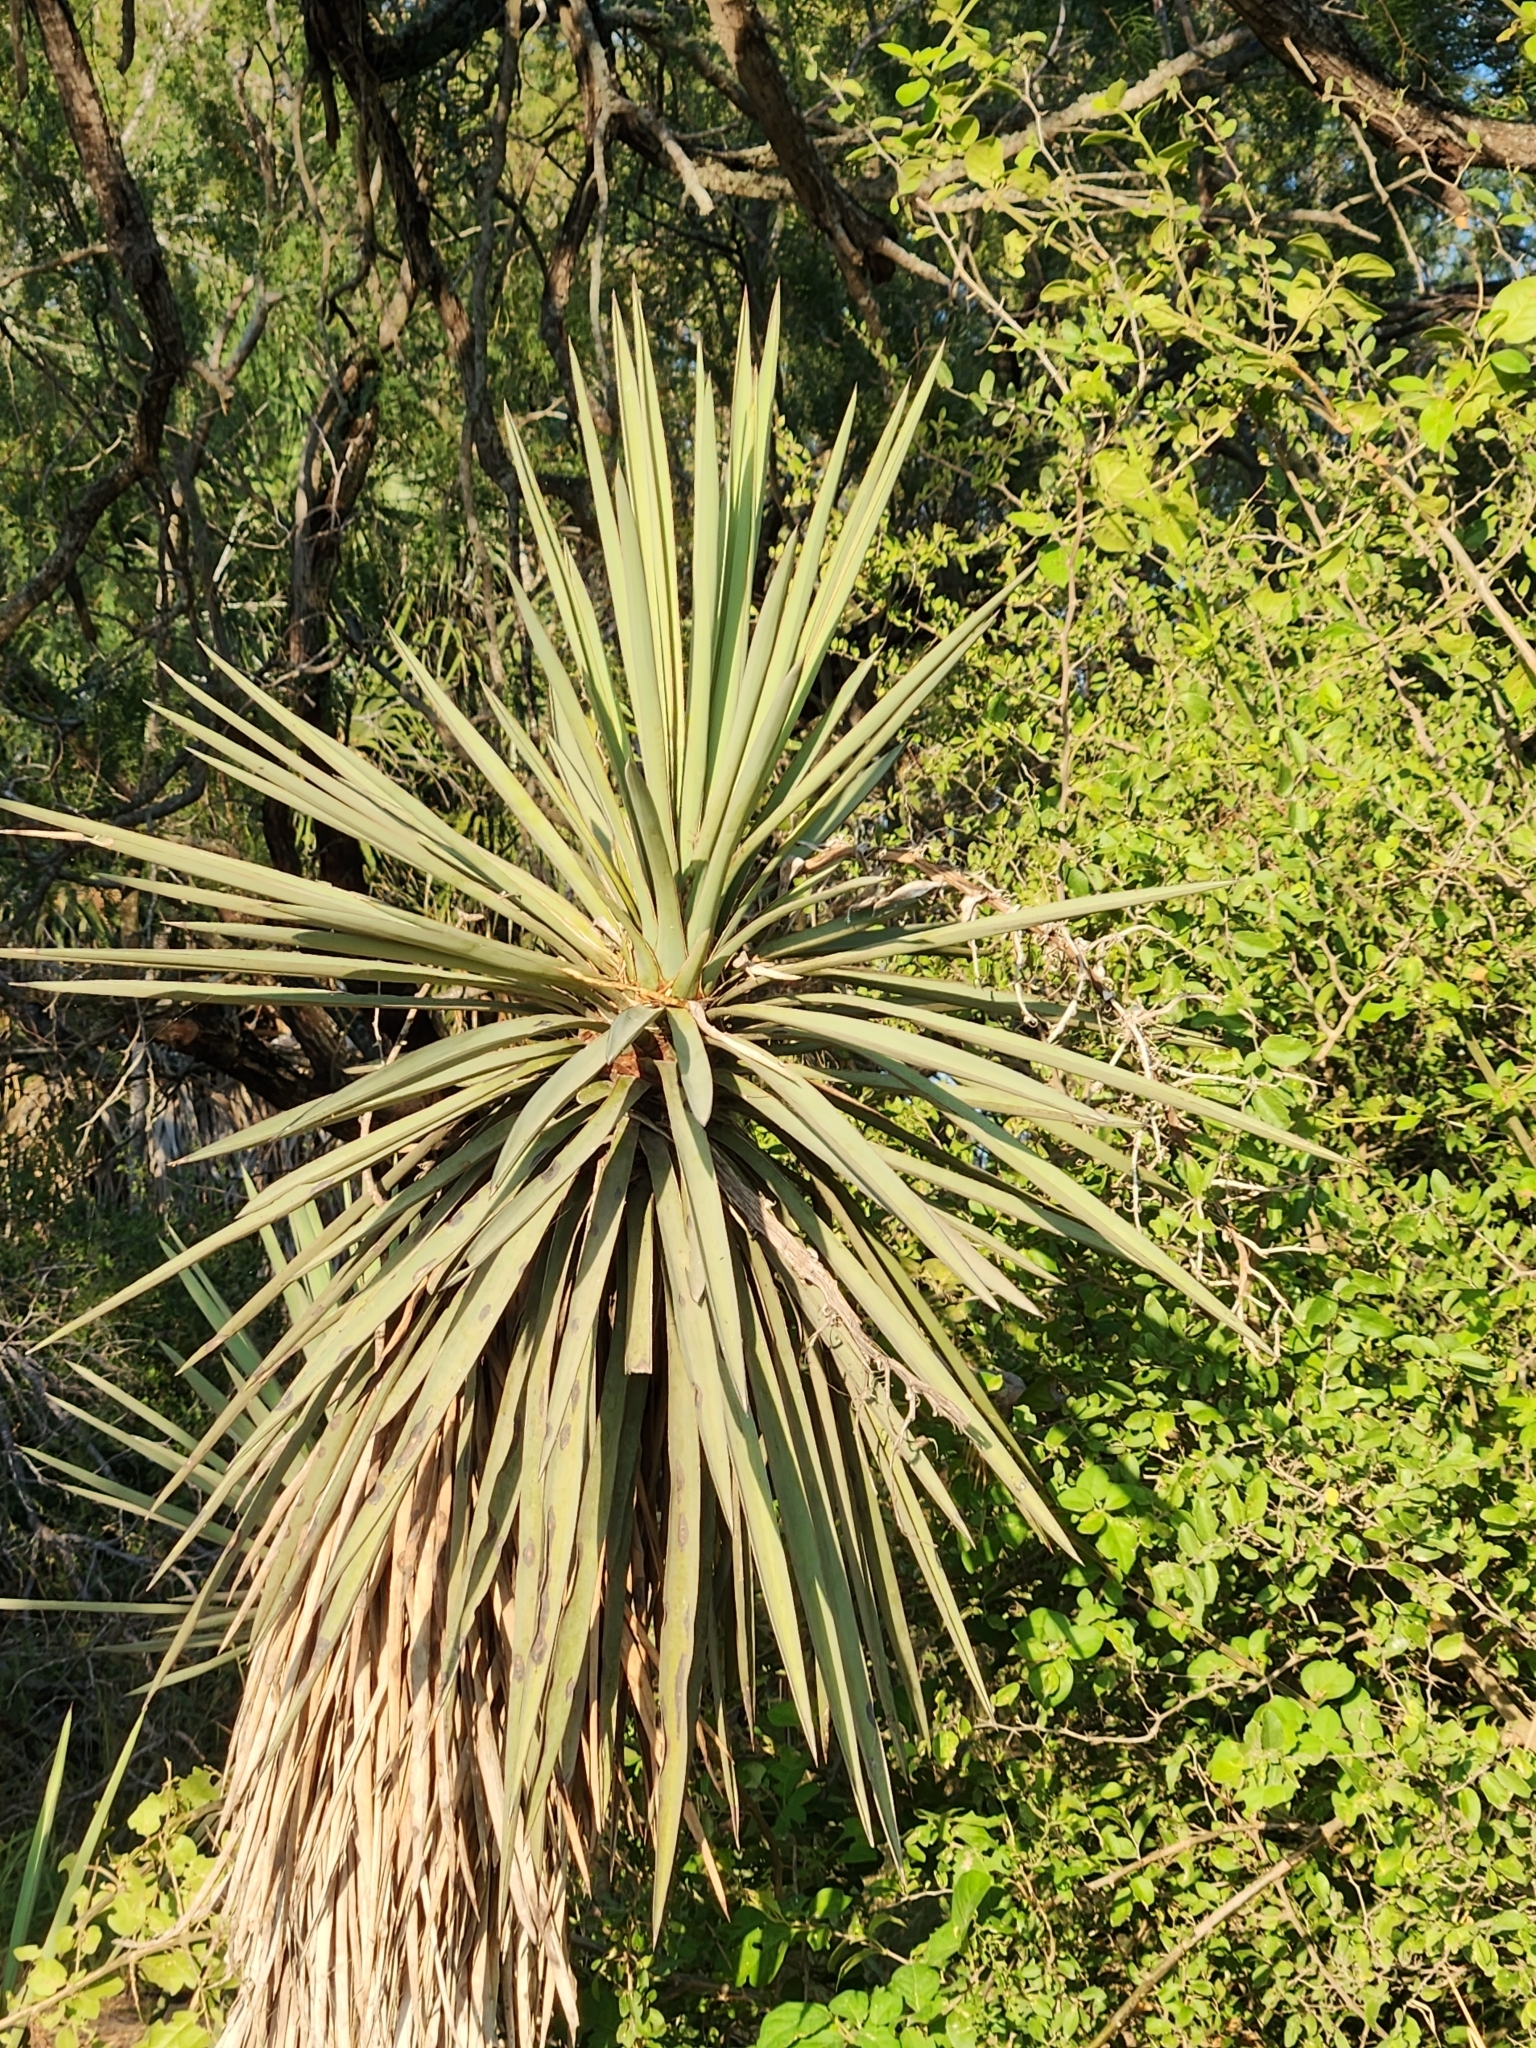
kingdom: Plantae
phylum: Tracheophyta
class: Liliopsida
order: Asparagales
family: Asparagaceae
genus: Yucca
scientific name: Yucca treculiana
